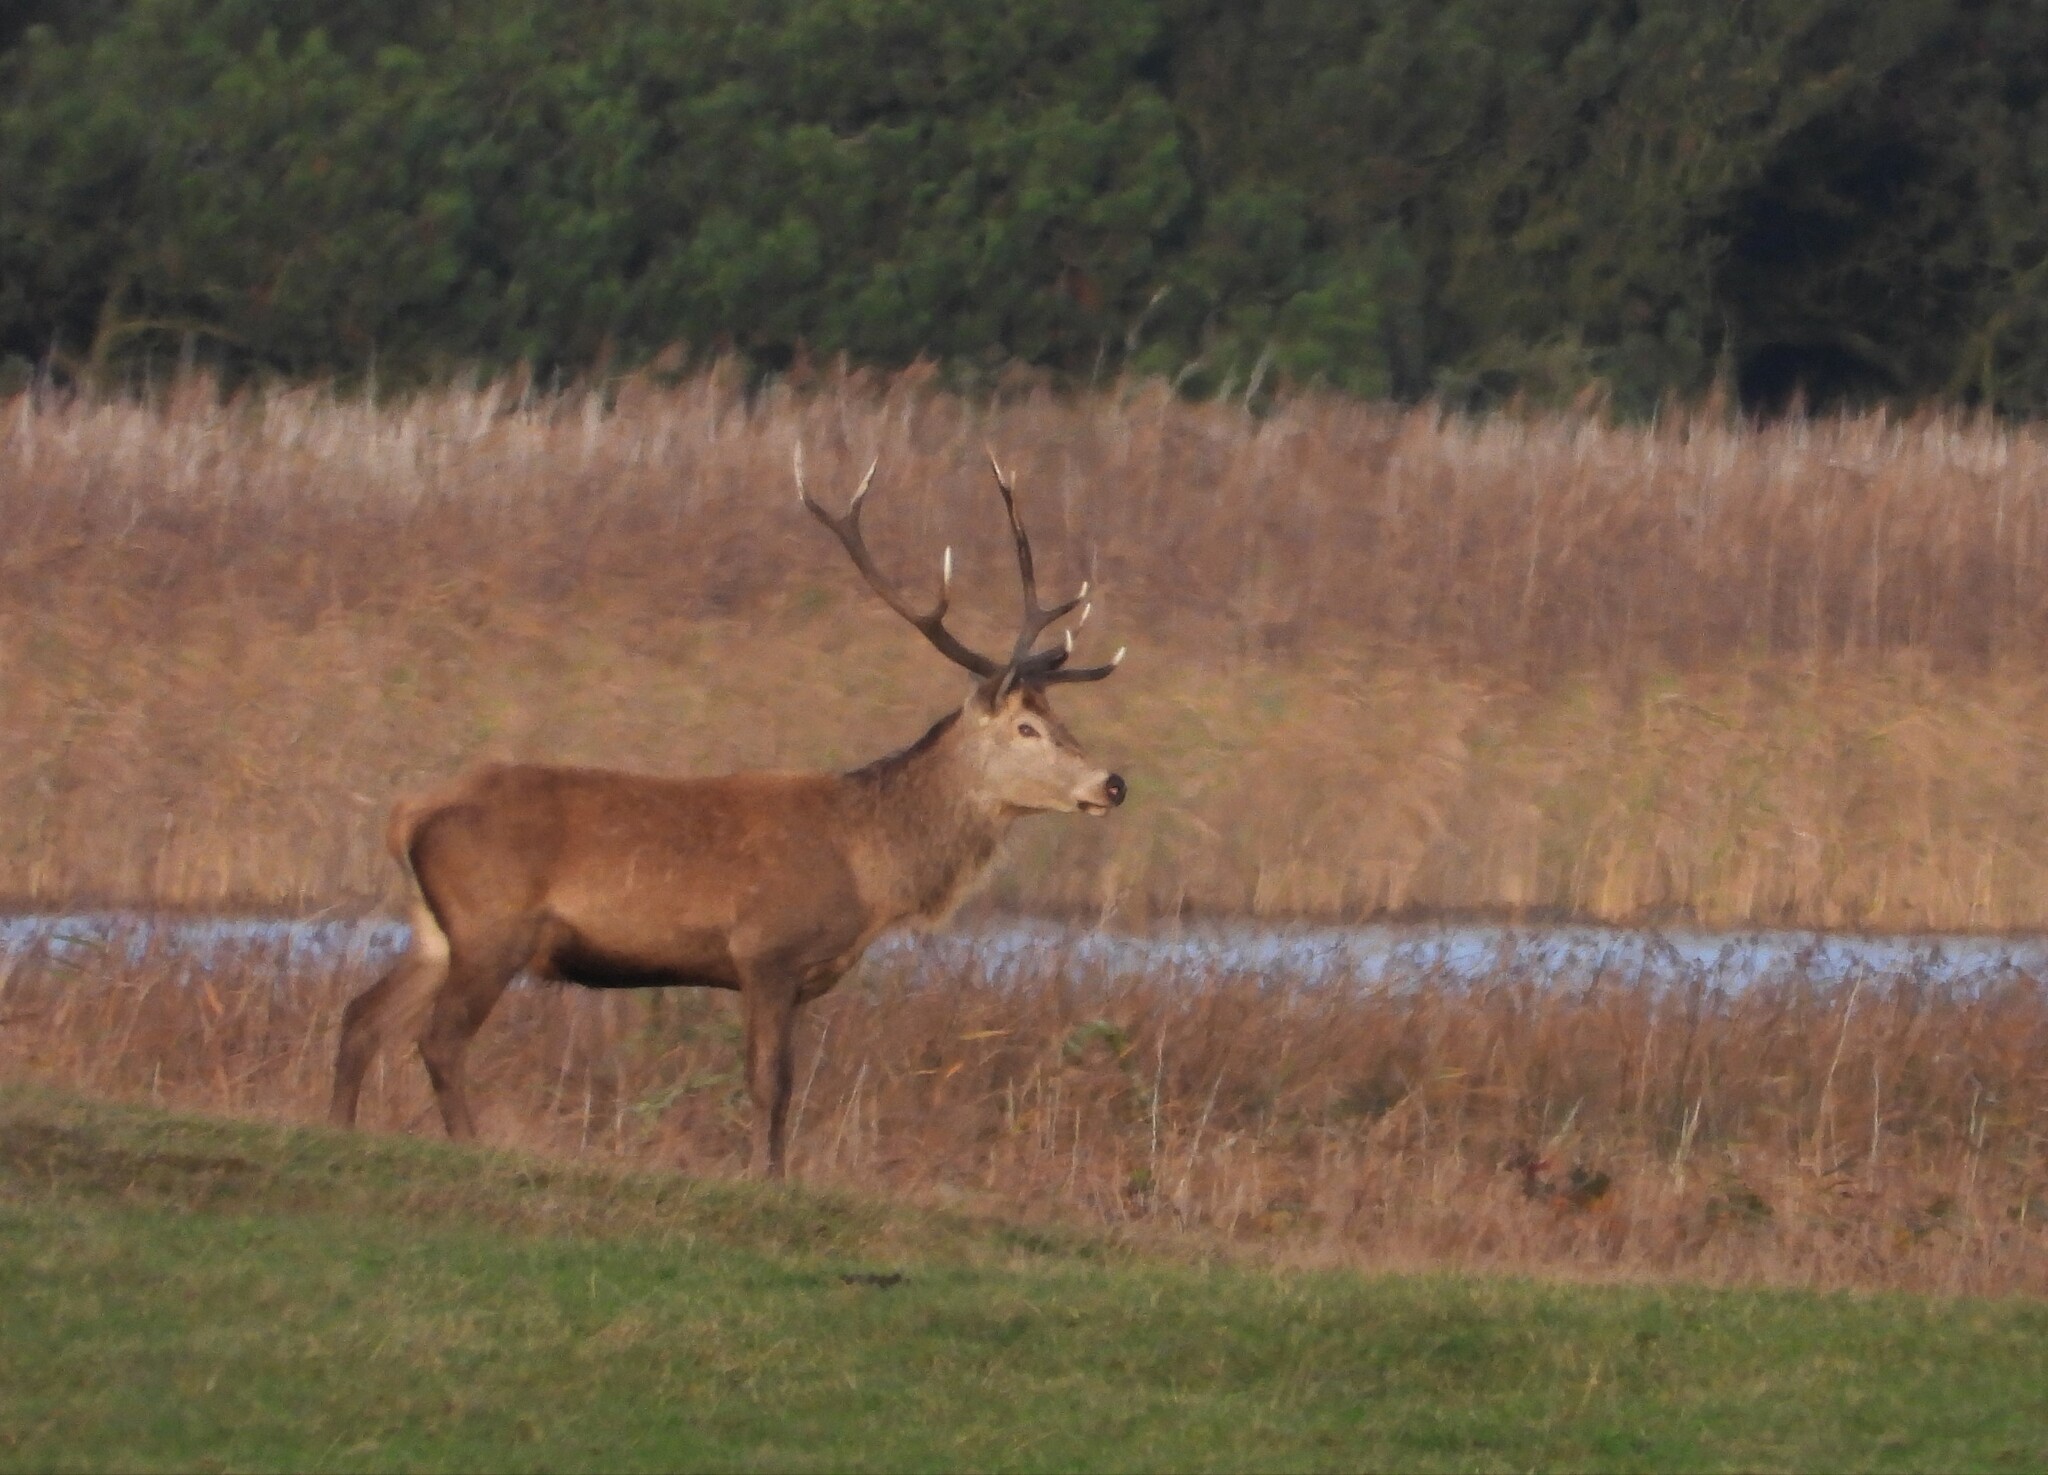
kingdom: Animalia
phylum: Chordata
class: Mammalia
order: Artiodactyla
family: Cervidae
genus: Cervus
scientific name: Cervus elaphus
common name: Red deer
